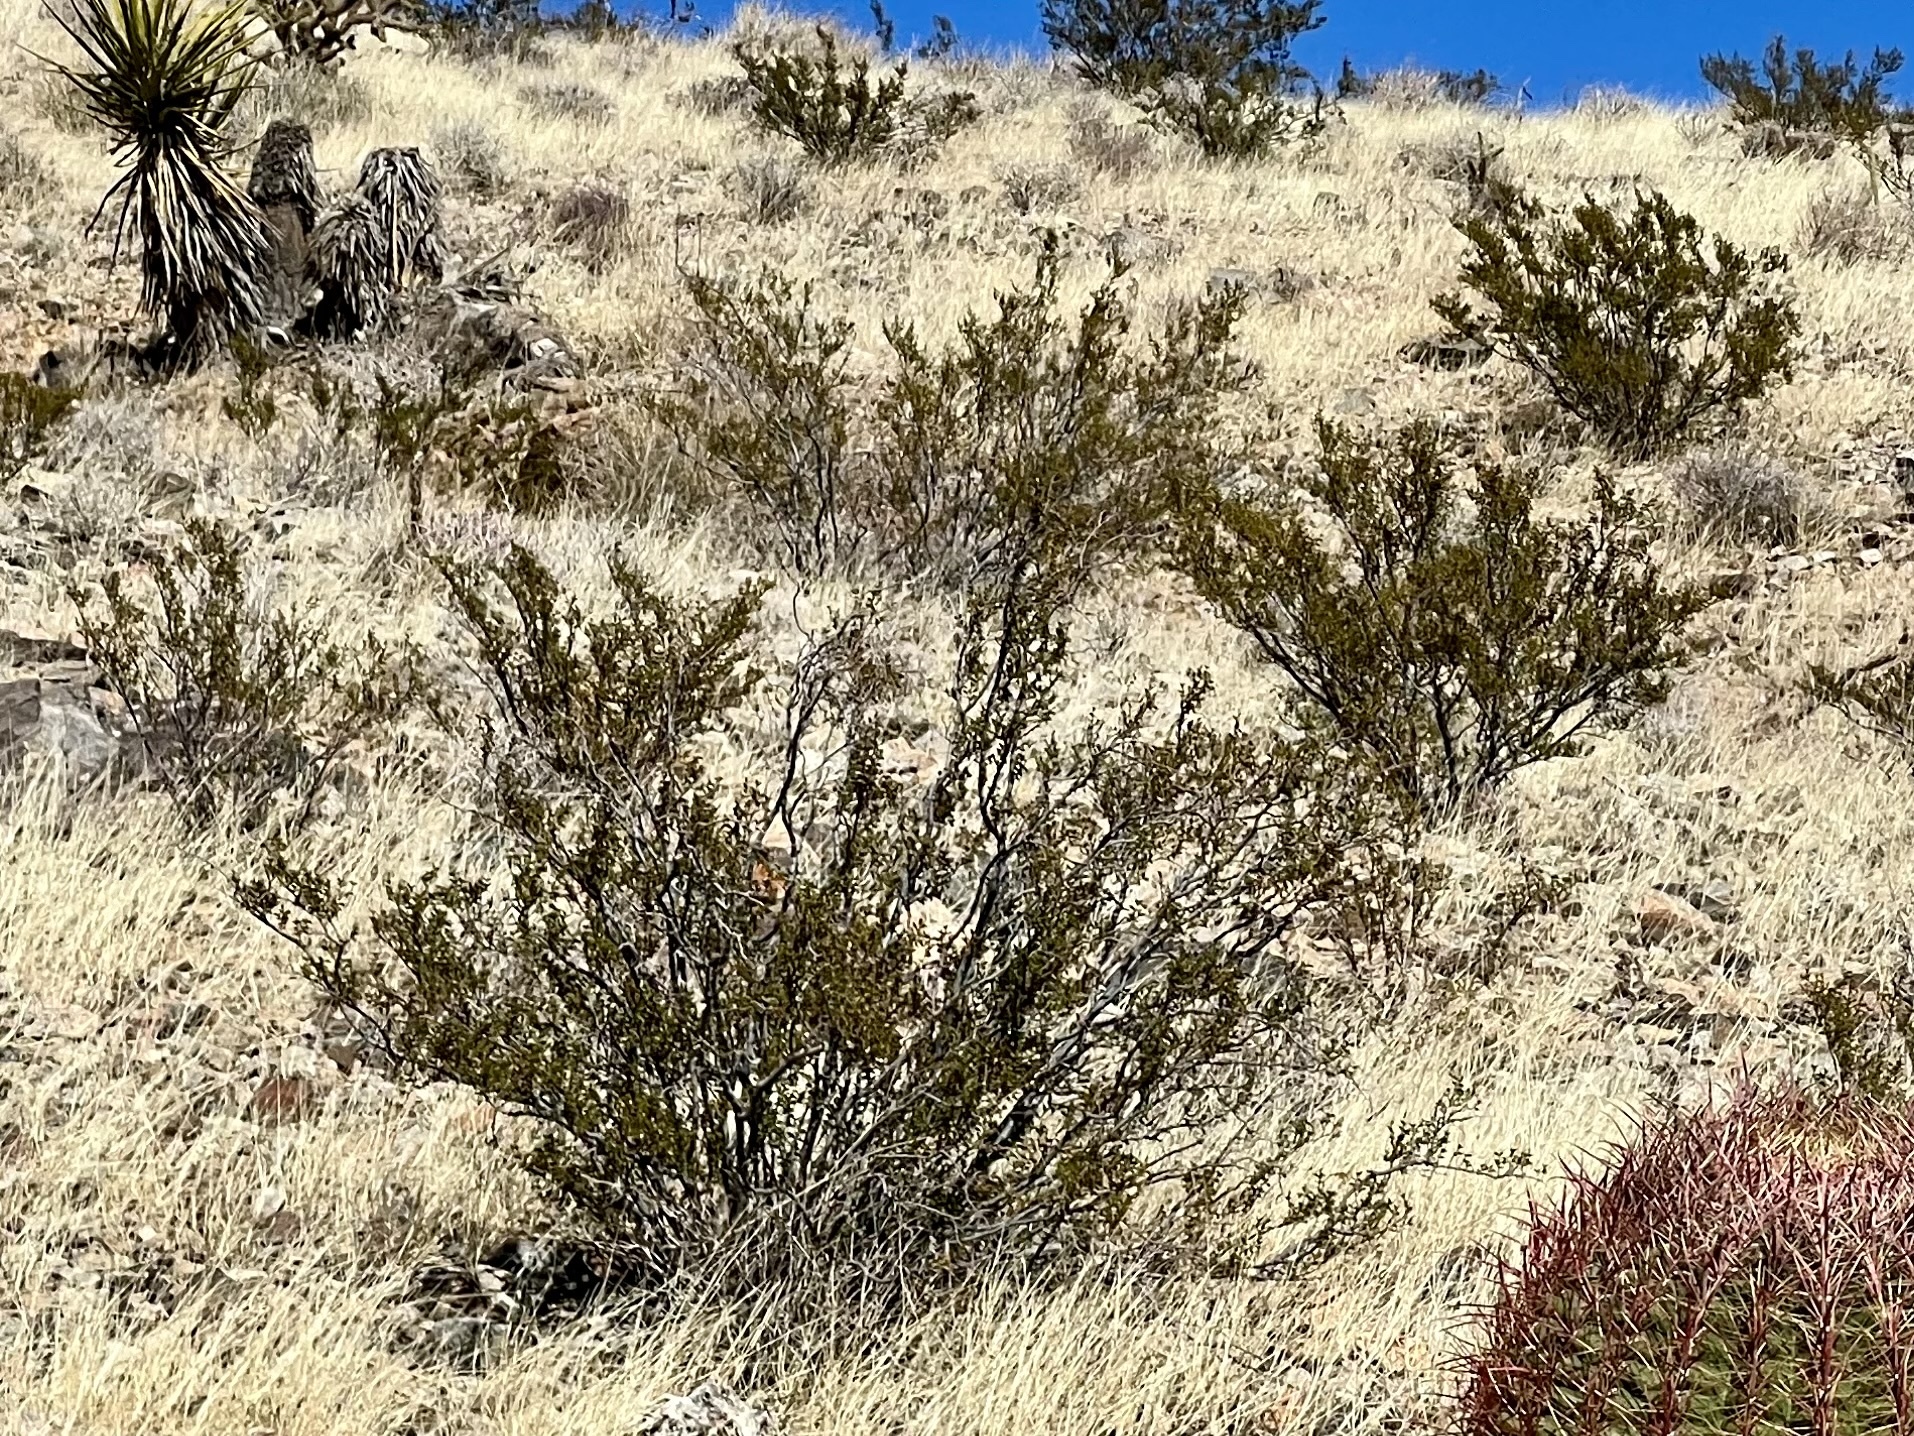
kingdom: Plantae
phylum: Tracheophyta
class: Magnoliopsida
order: Zygophyllales
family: Zygophyllaceae
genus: Larrea
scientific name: Larrea tridentata
